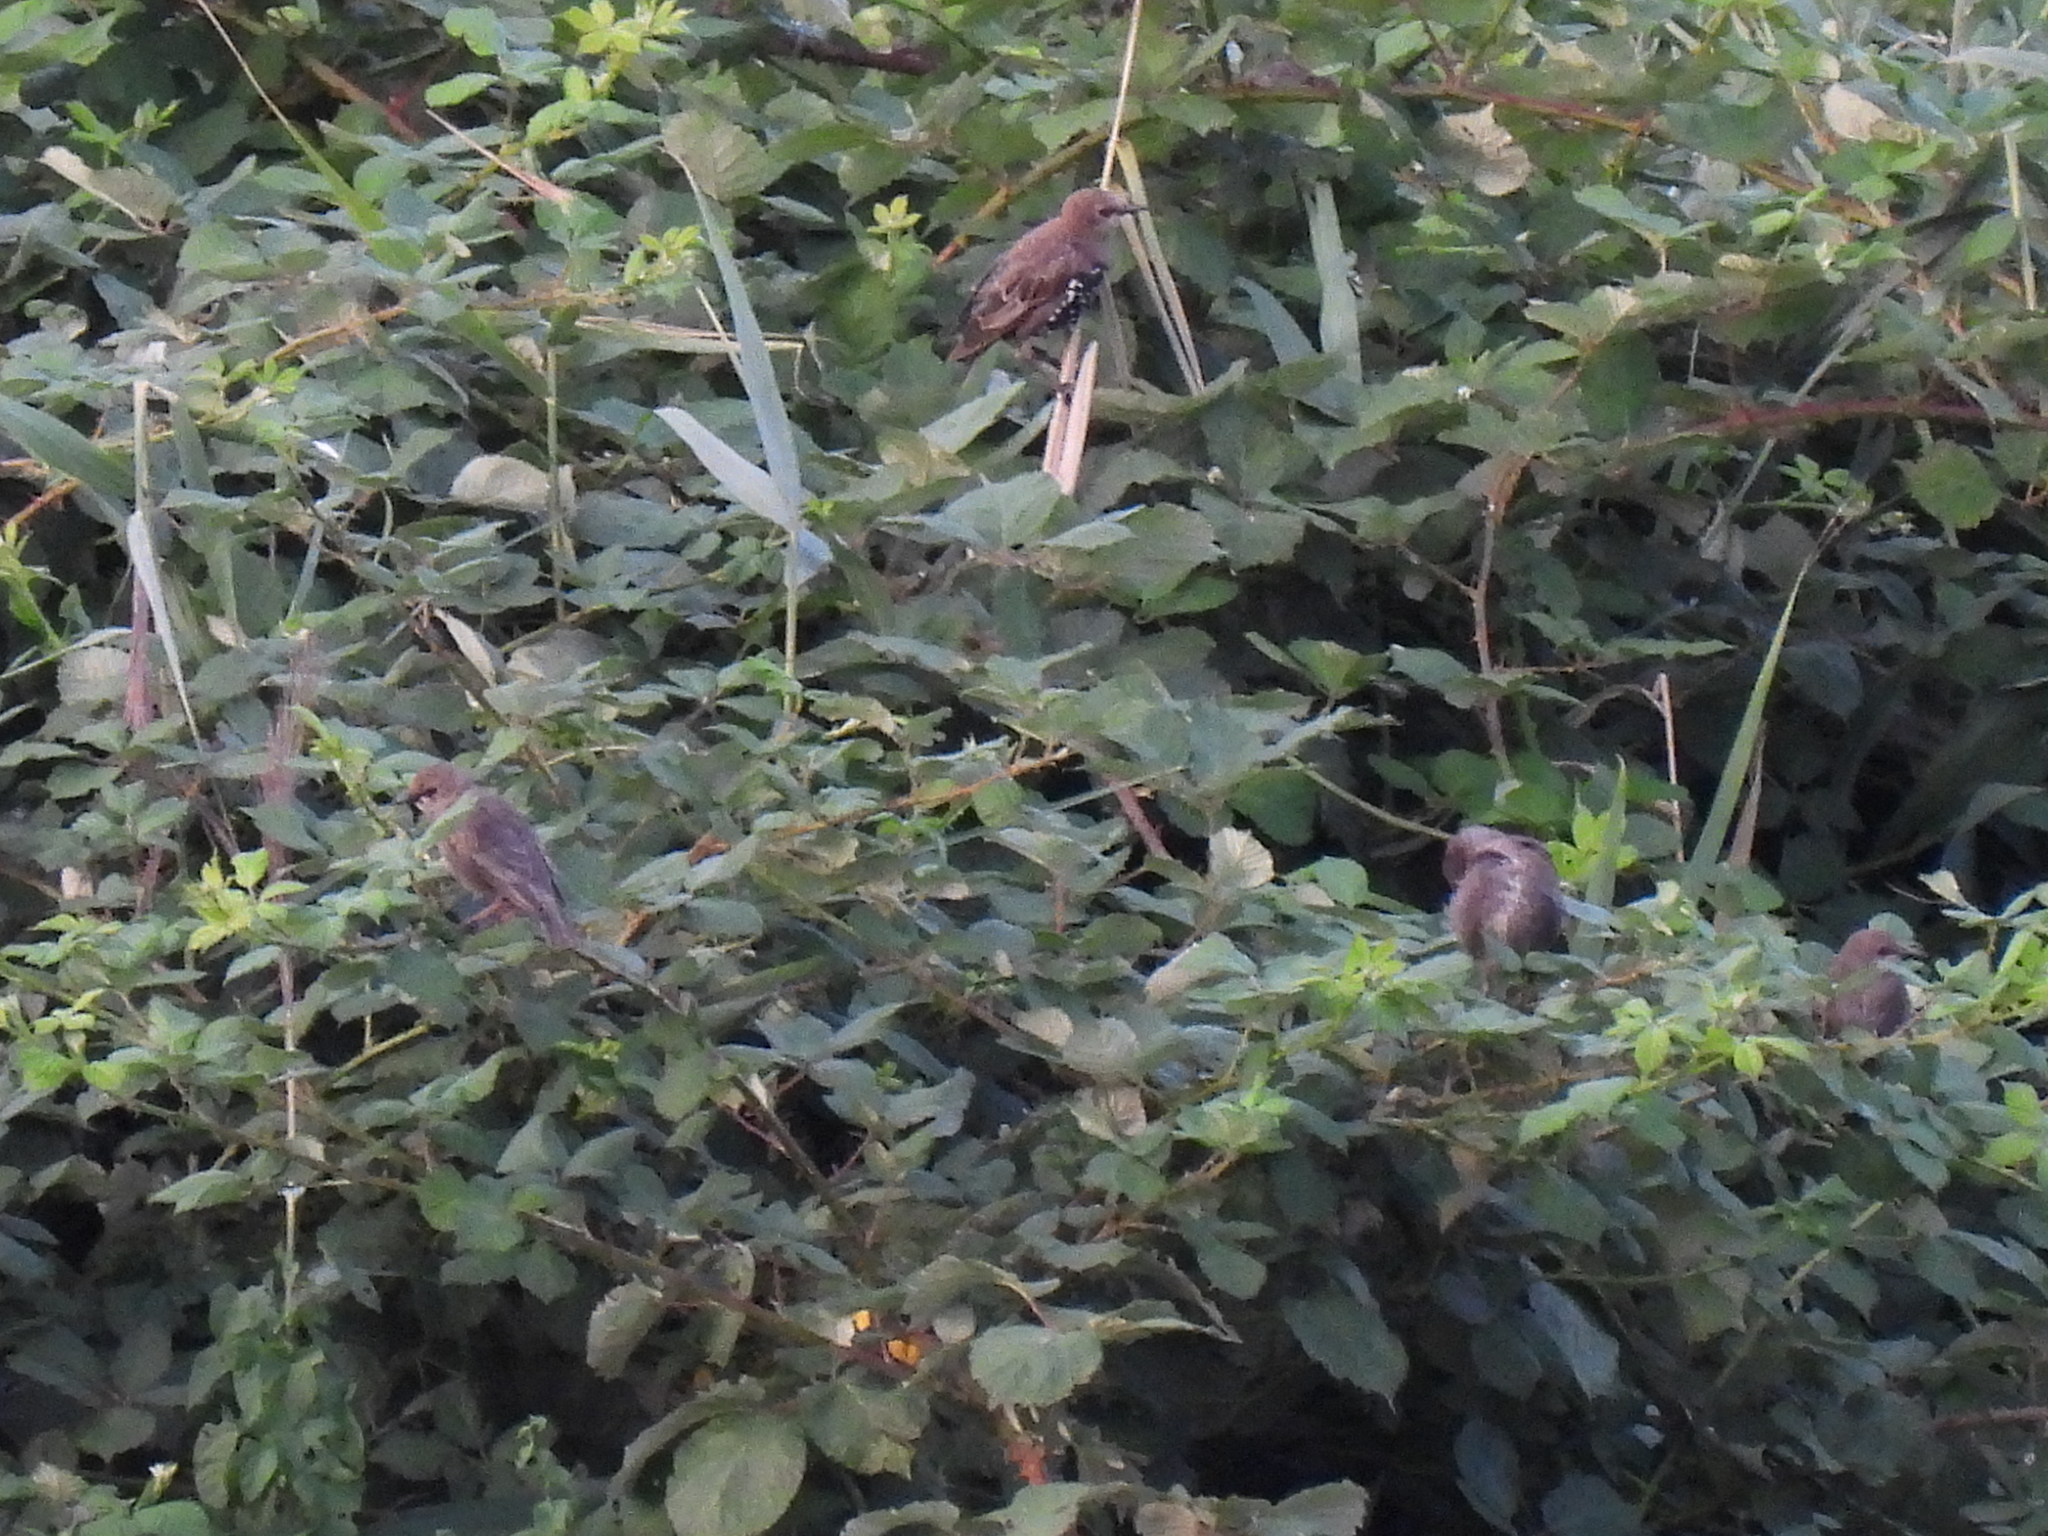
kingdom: Animalia
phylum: Chordata
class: Aves
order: Passeriformes
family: Sturnidae
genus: Sturnus
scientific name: Sturnus vulgaris
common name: Common starling
